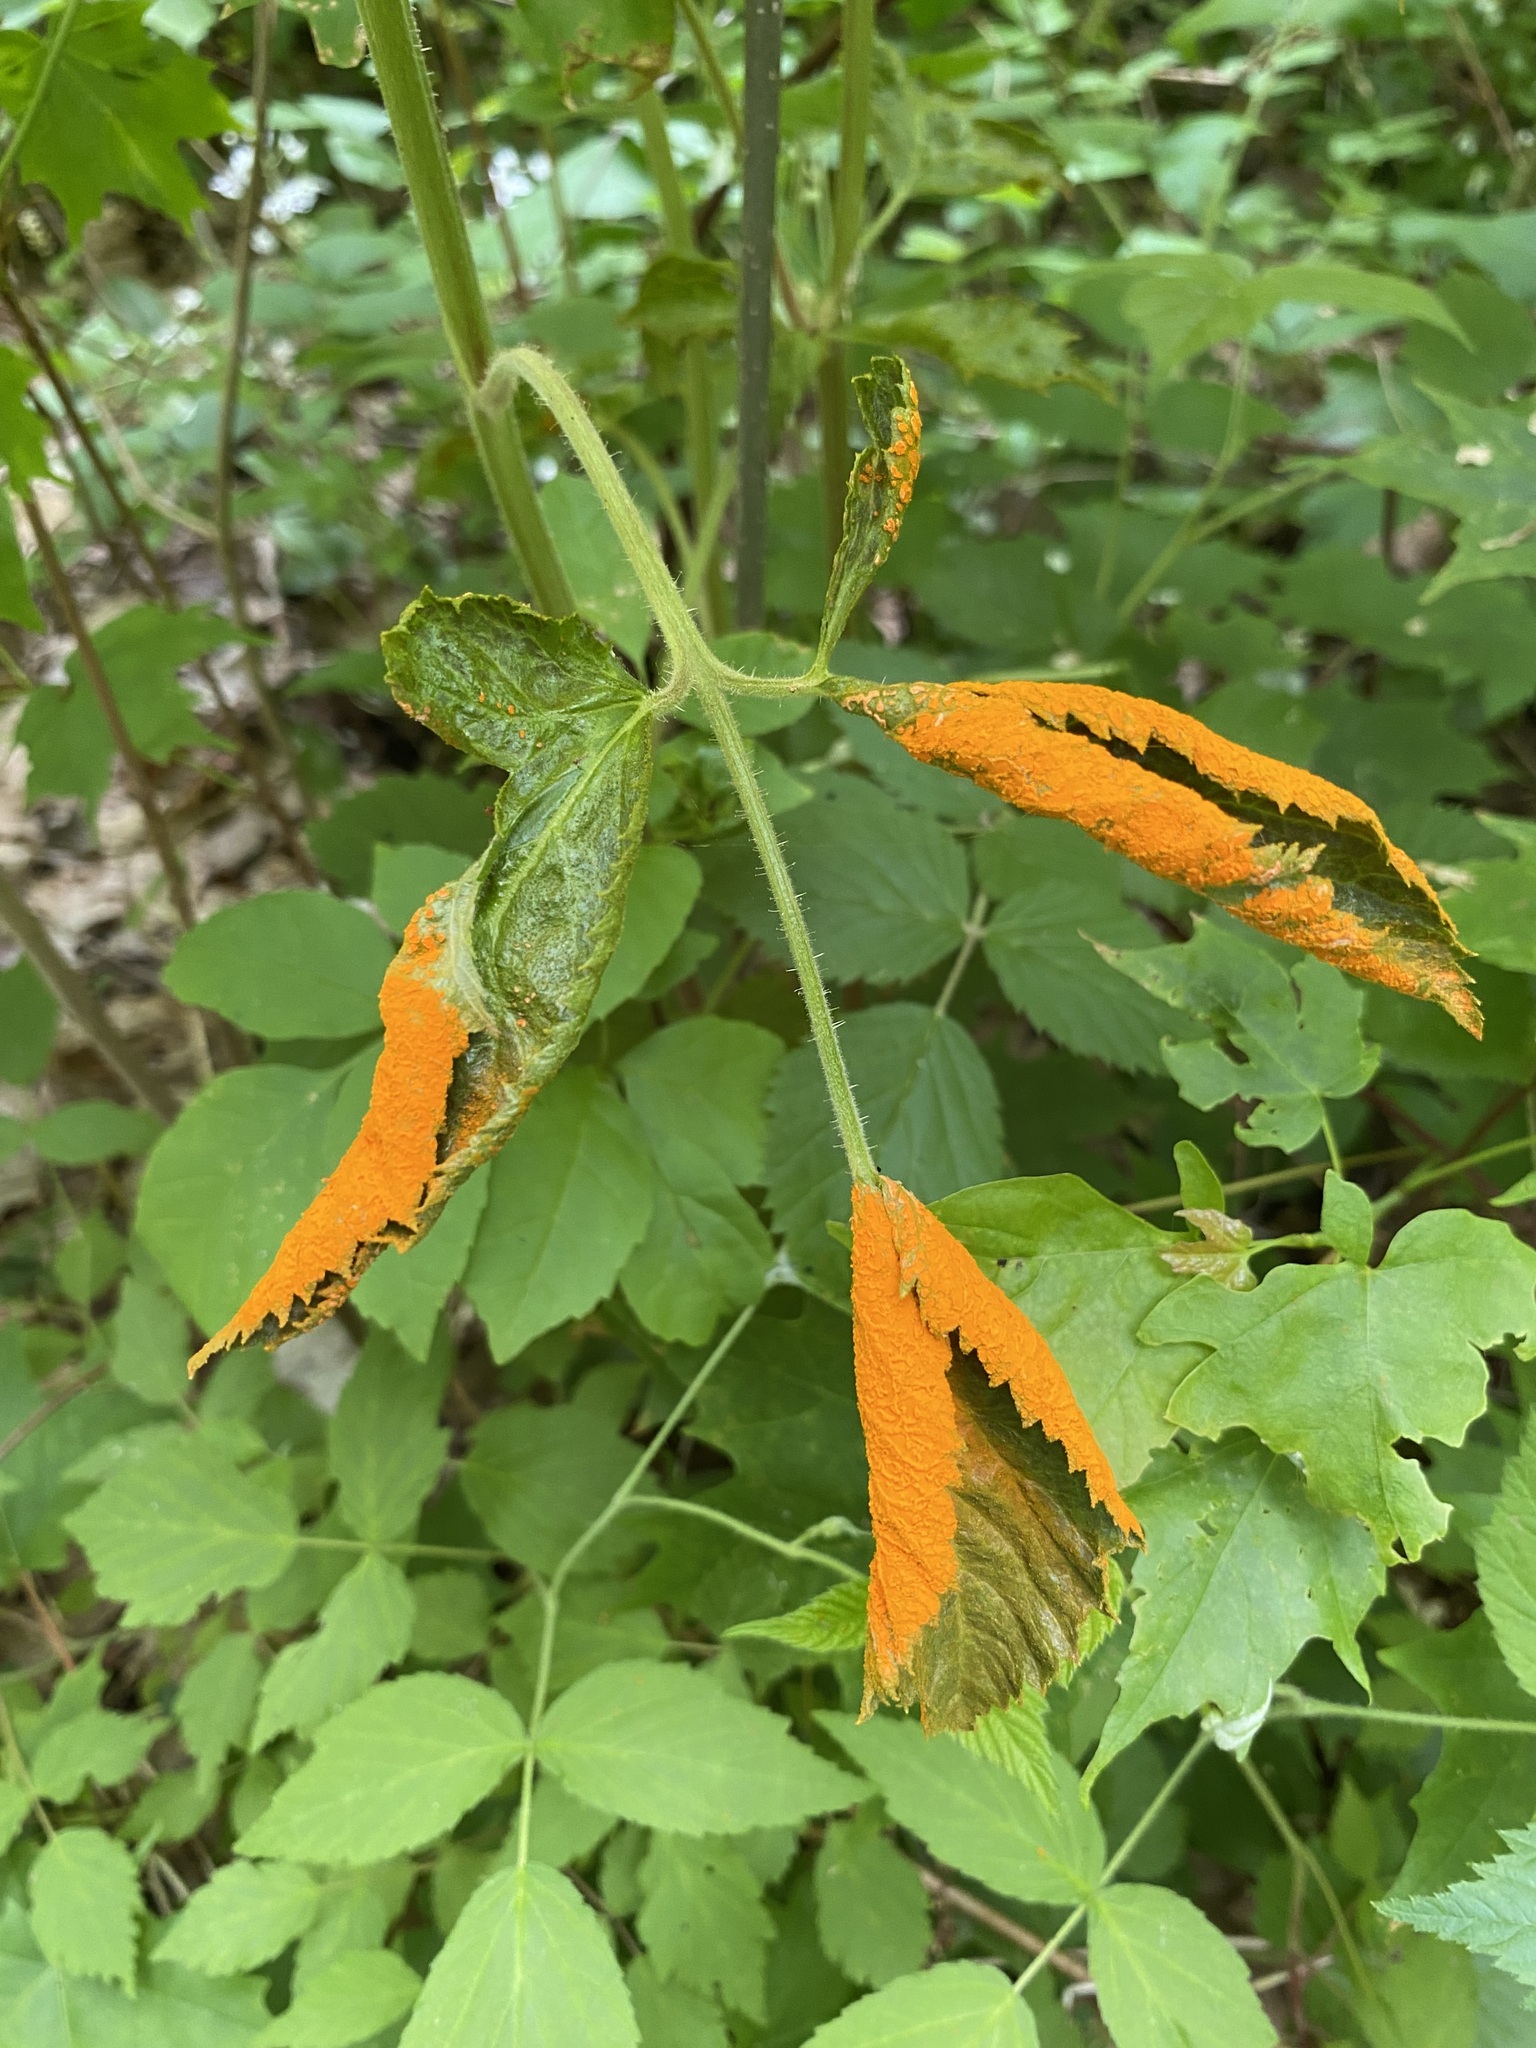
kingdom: Fungi
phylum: Basidiomycota
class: Pucciniomycetes
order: Pucciniales
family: Phragmidiaceae
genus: Arthuriomyces
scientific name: Arthuriomyces peckianus
